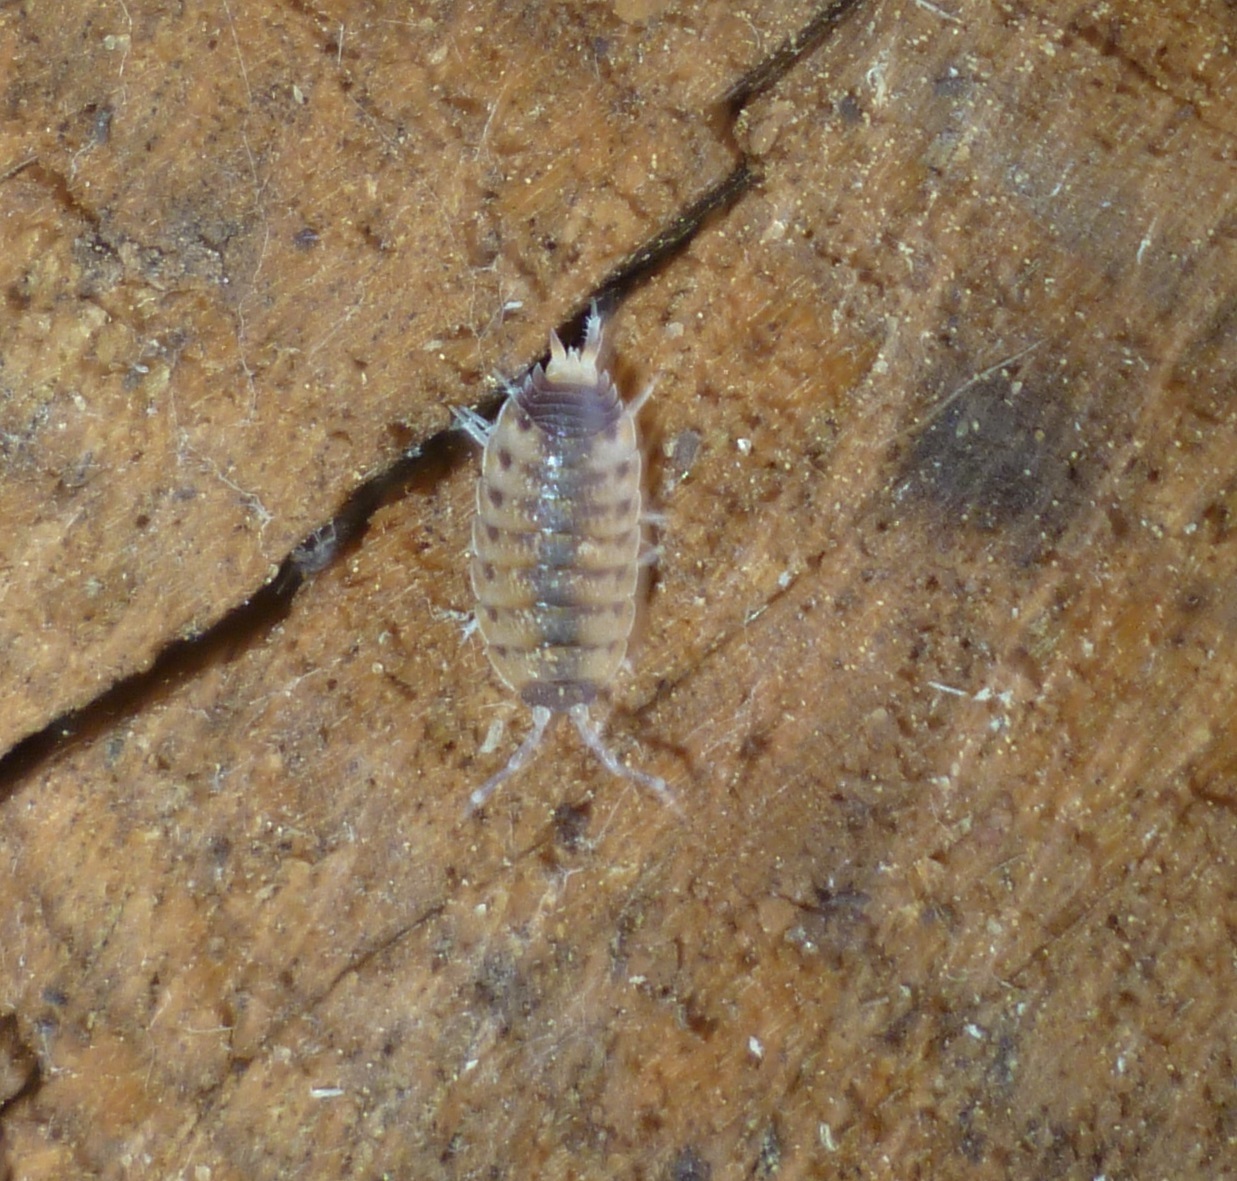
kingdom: Animalia
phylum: Arthropoda
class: Malacostraca
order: Isopoda
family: Porcellionidae
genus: Proporcellio
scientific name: Proporcellio vulcanius
